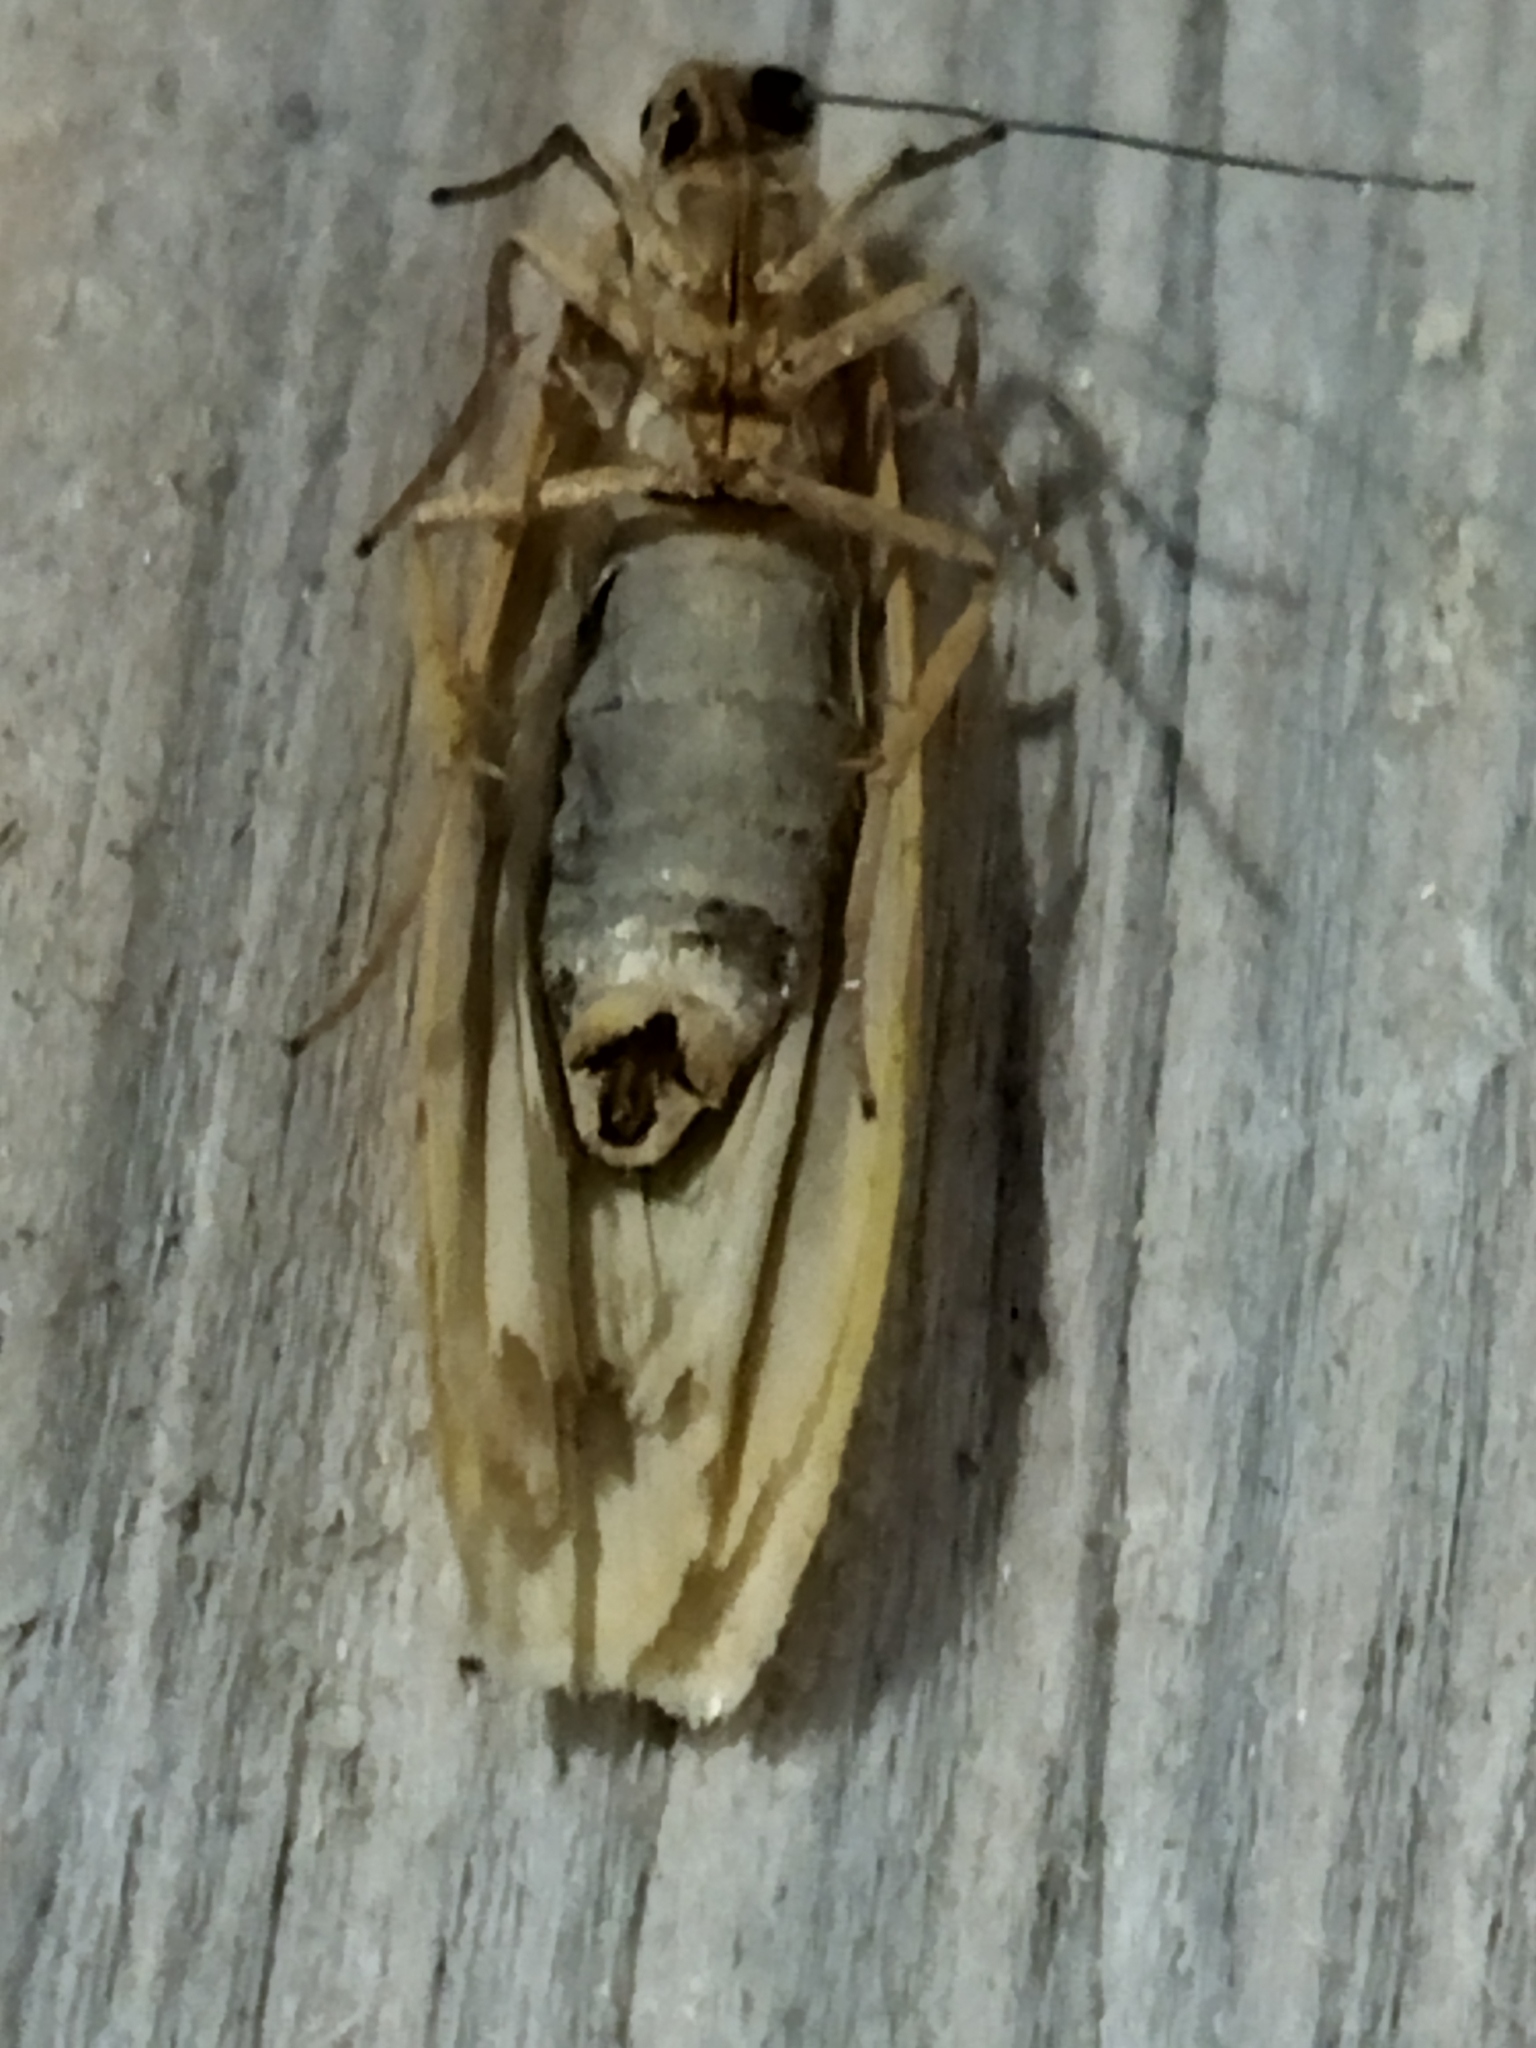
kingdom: Animalia
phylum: Arthropoda
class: Insecta
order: Lepidoptera
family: Erebidae
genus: Eilema
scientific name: Eilema caniola
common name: Hoary footman
